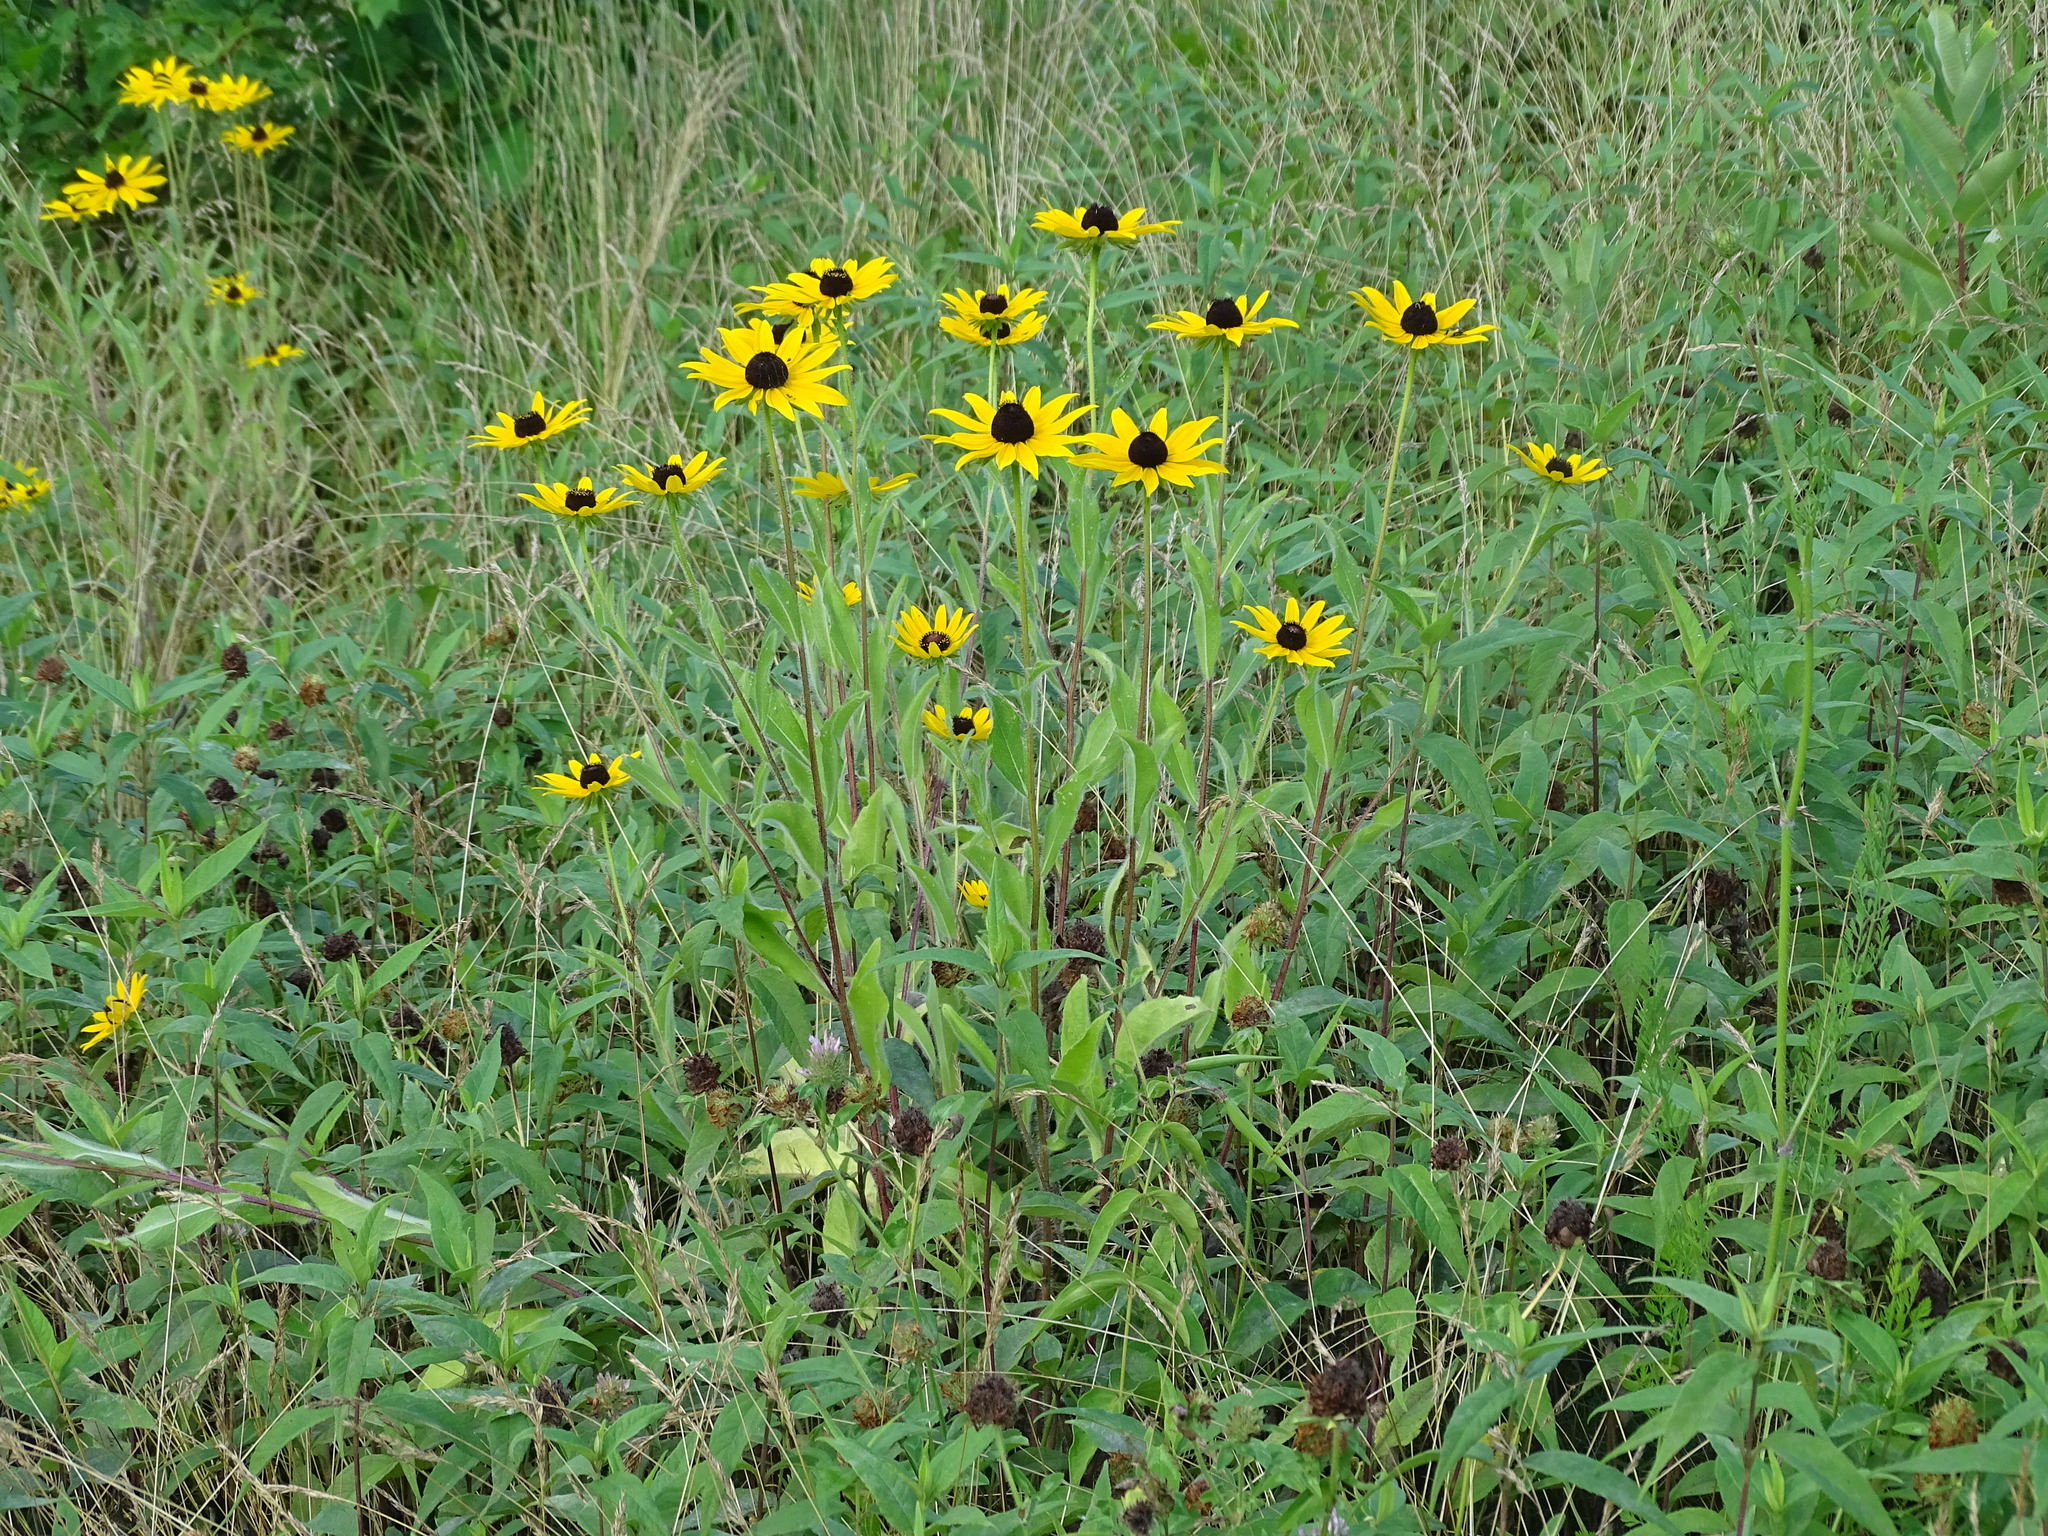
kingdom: Plantae
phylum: Tracheophyta
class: Magnoliopsida
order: Asterales
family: Asteraceae
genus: Rudbeckia
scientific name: Rudbeckia hirta
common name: Black-eyed-susan
